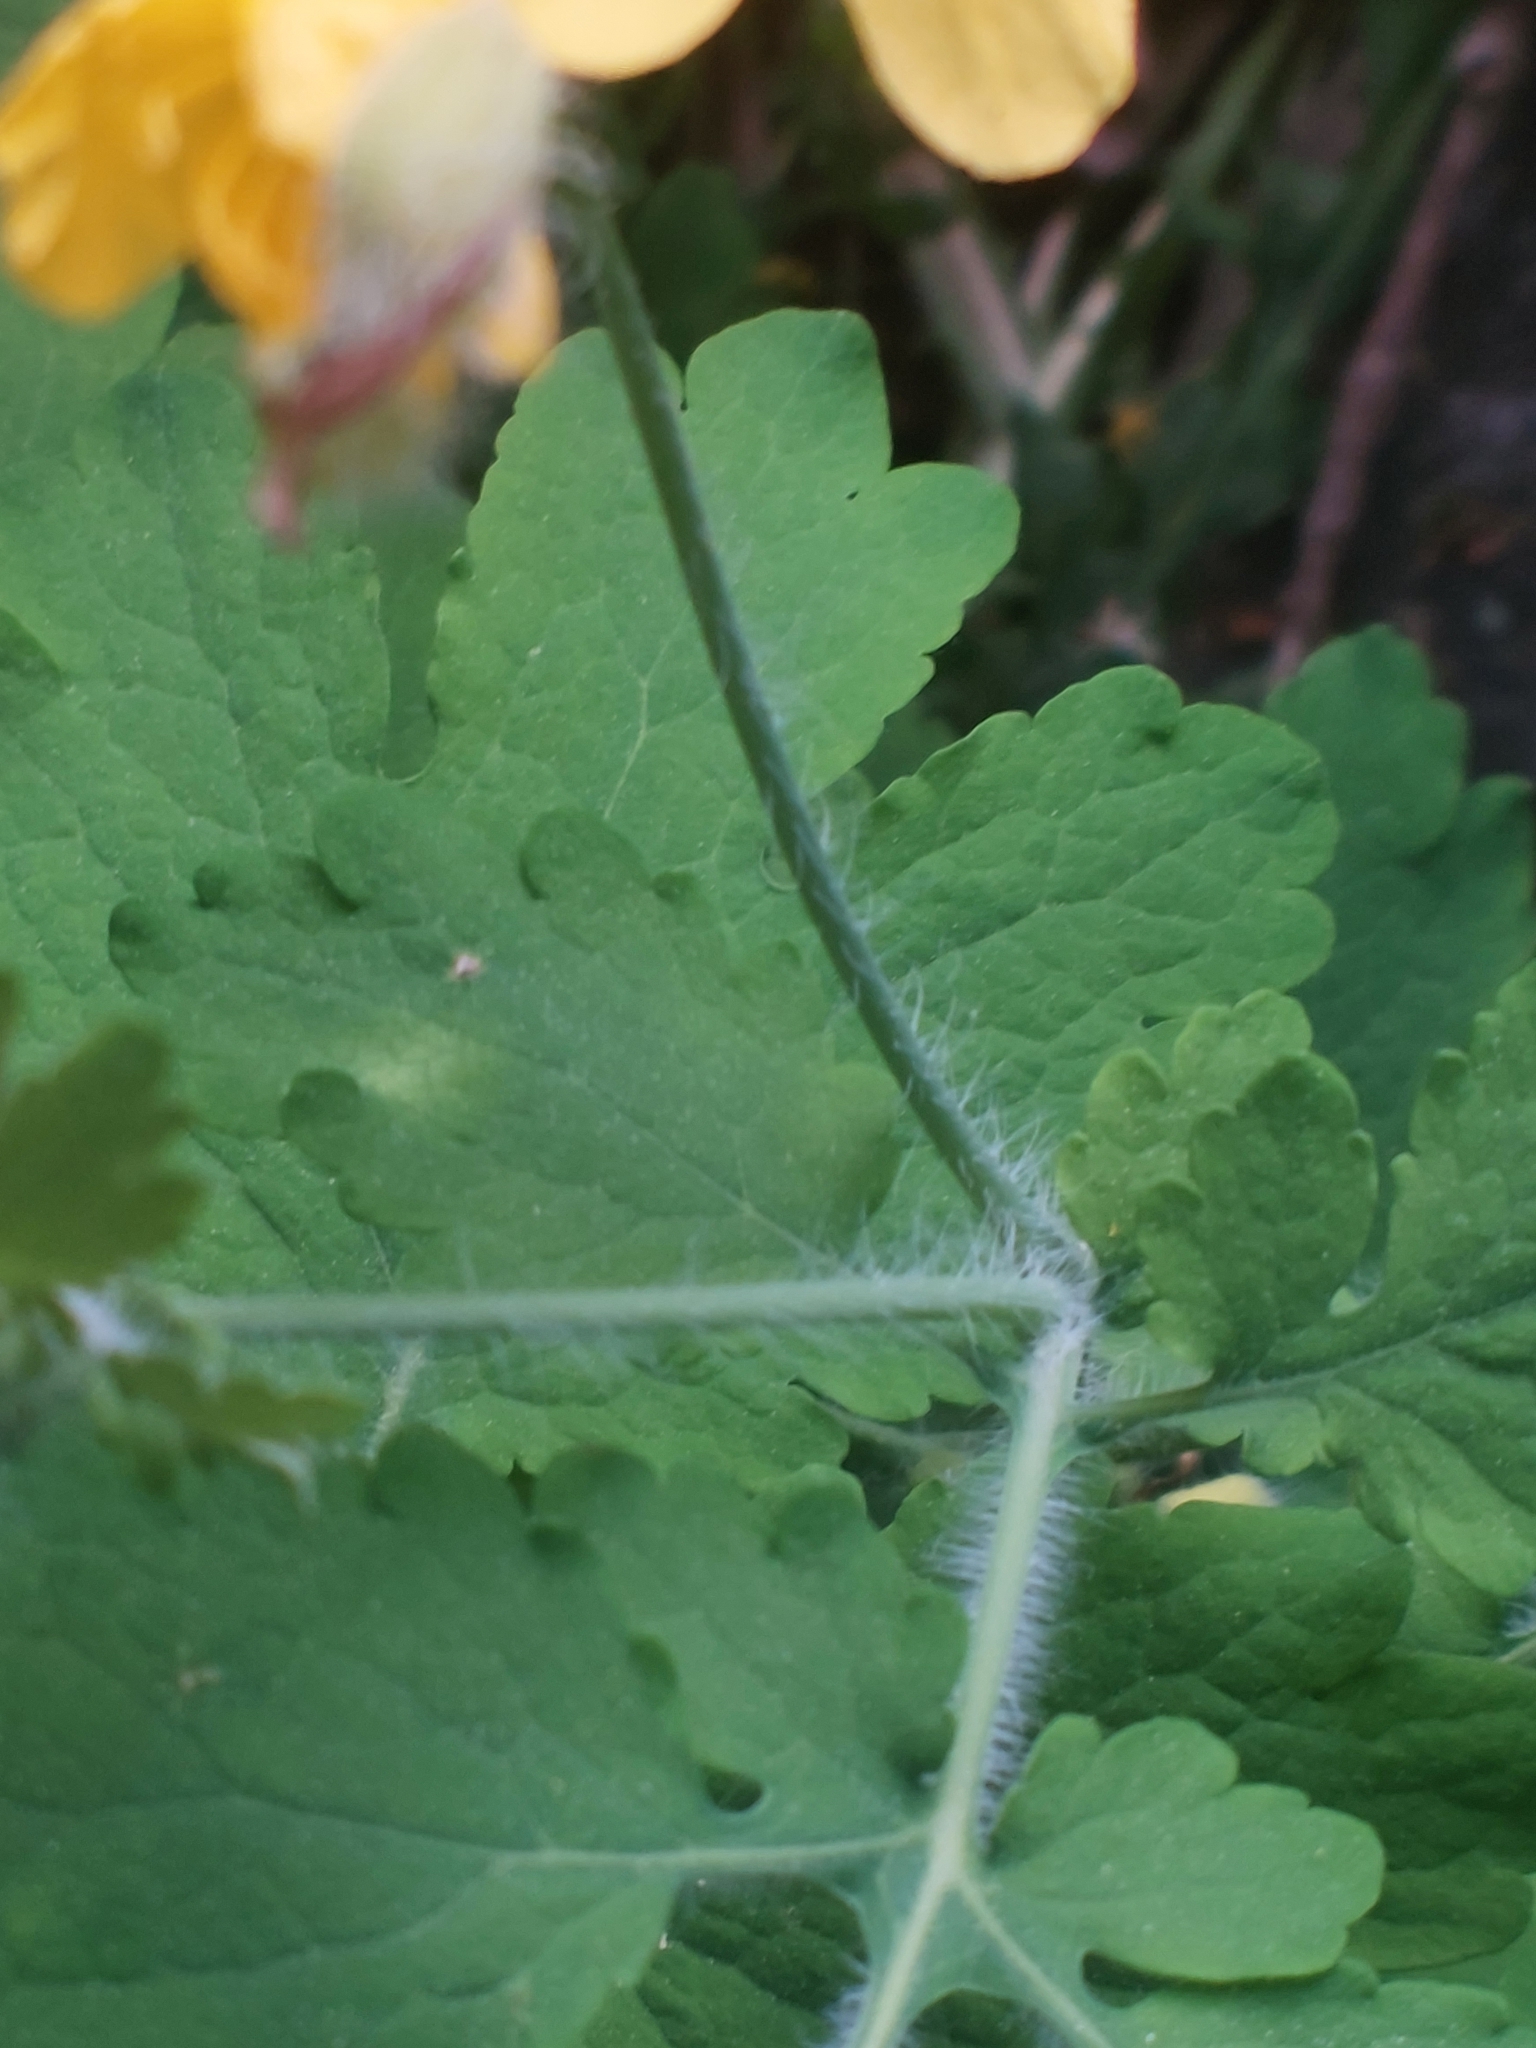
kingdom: Plantae
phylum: Tracheophyta
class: Magnoliopsida
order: Ranunculales
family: Papaveraceae
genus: Chelidonium
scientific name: Chelidonium majus
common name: Greater celandine
